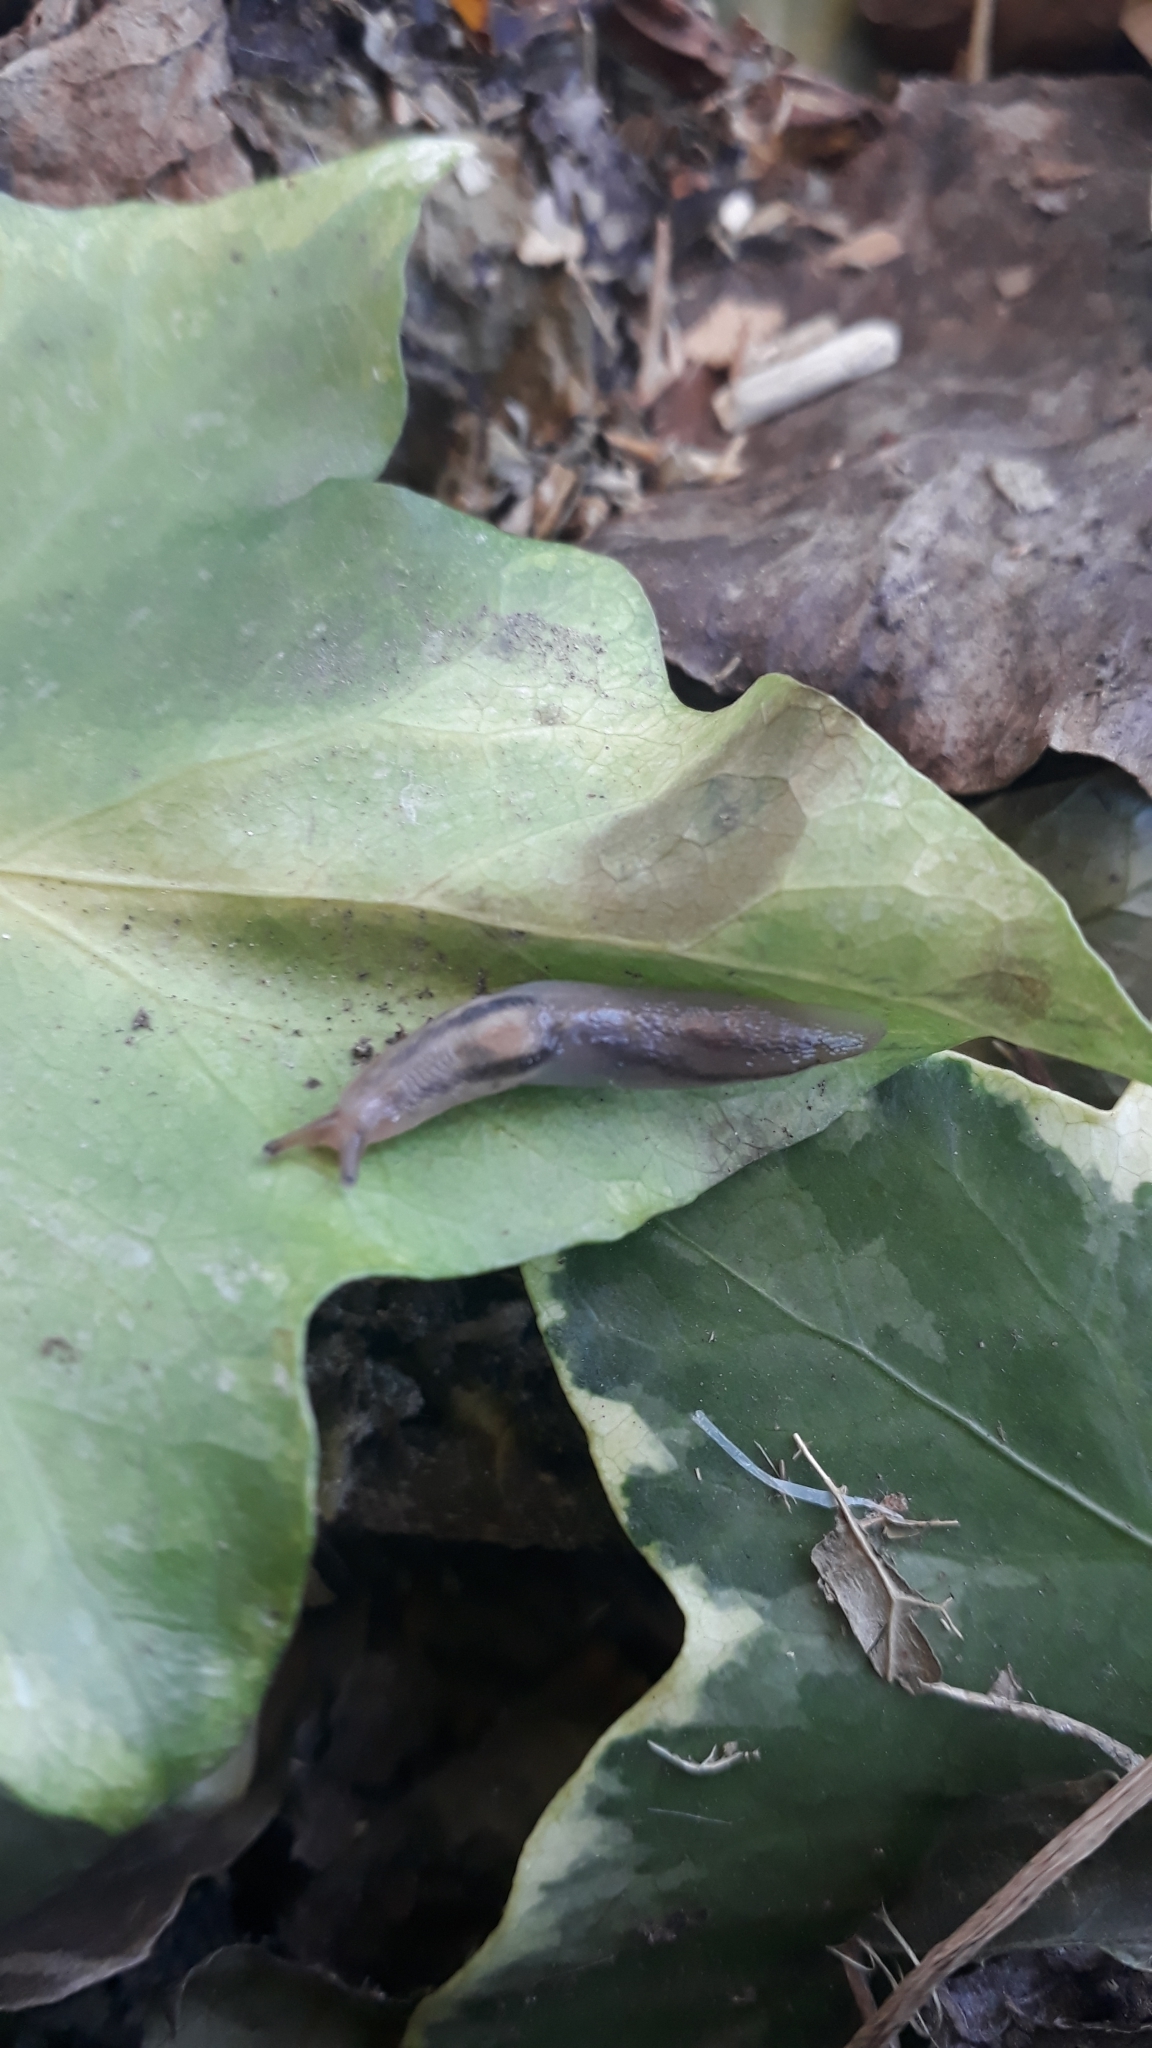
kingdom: Animalia
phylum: Mollusca
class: Gastropoda
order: Stylommatophora
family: Limacidae
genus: Ambigolimax
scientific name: Ambigolimax
